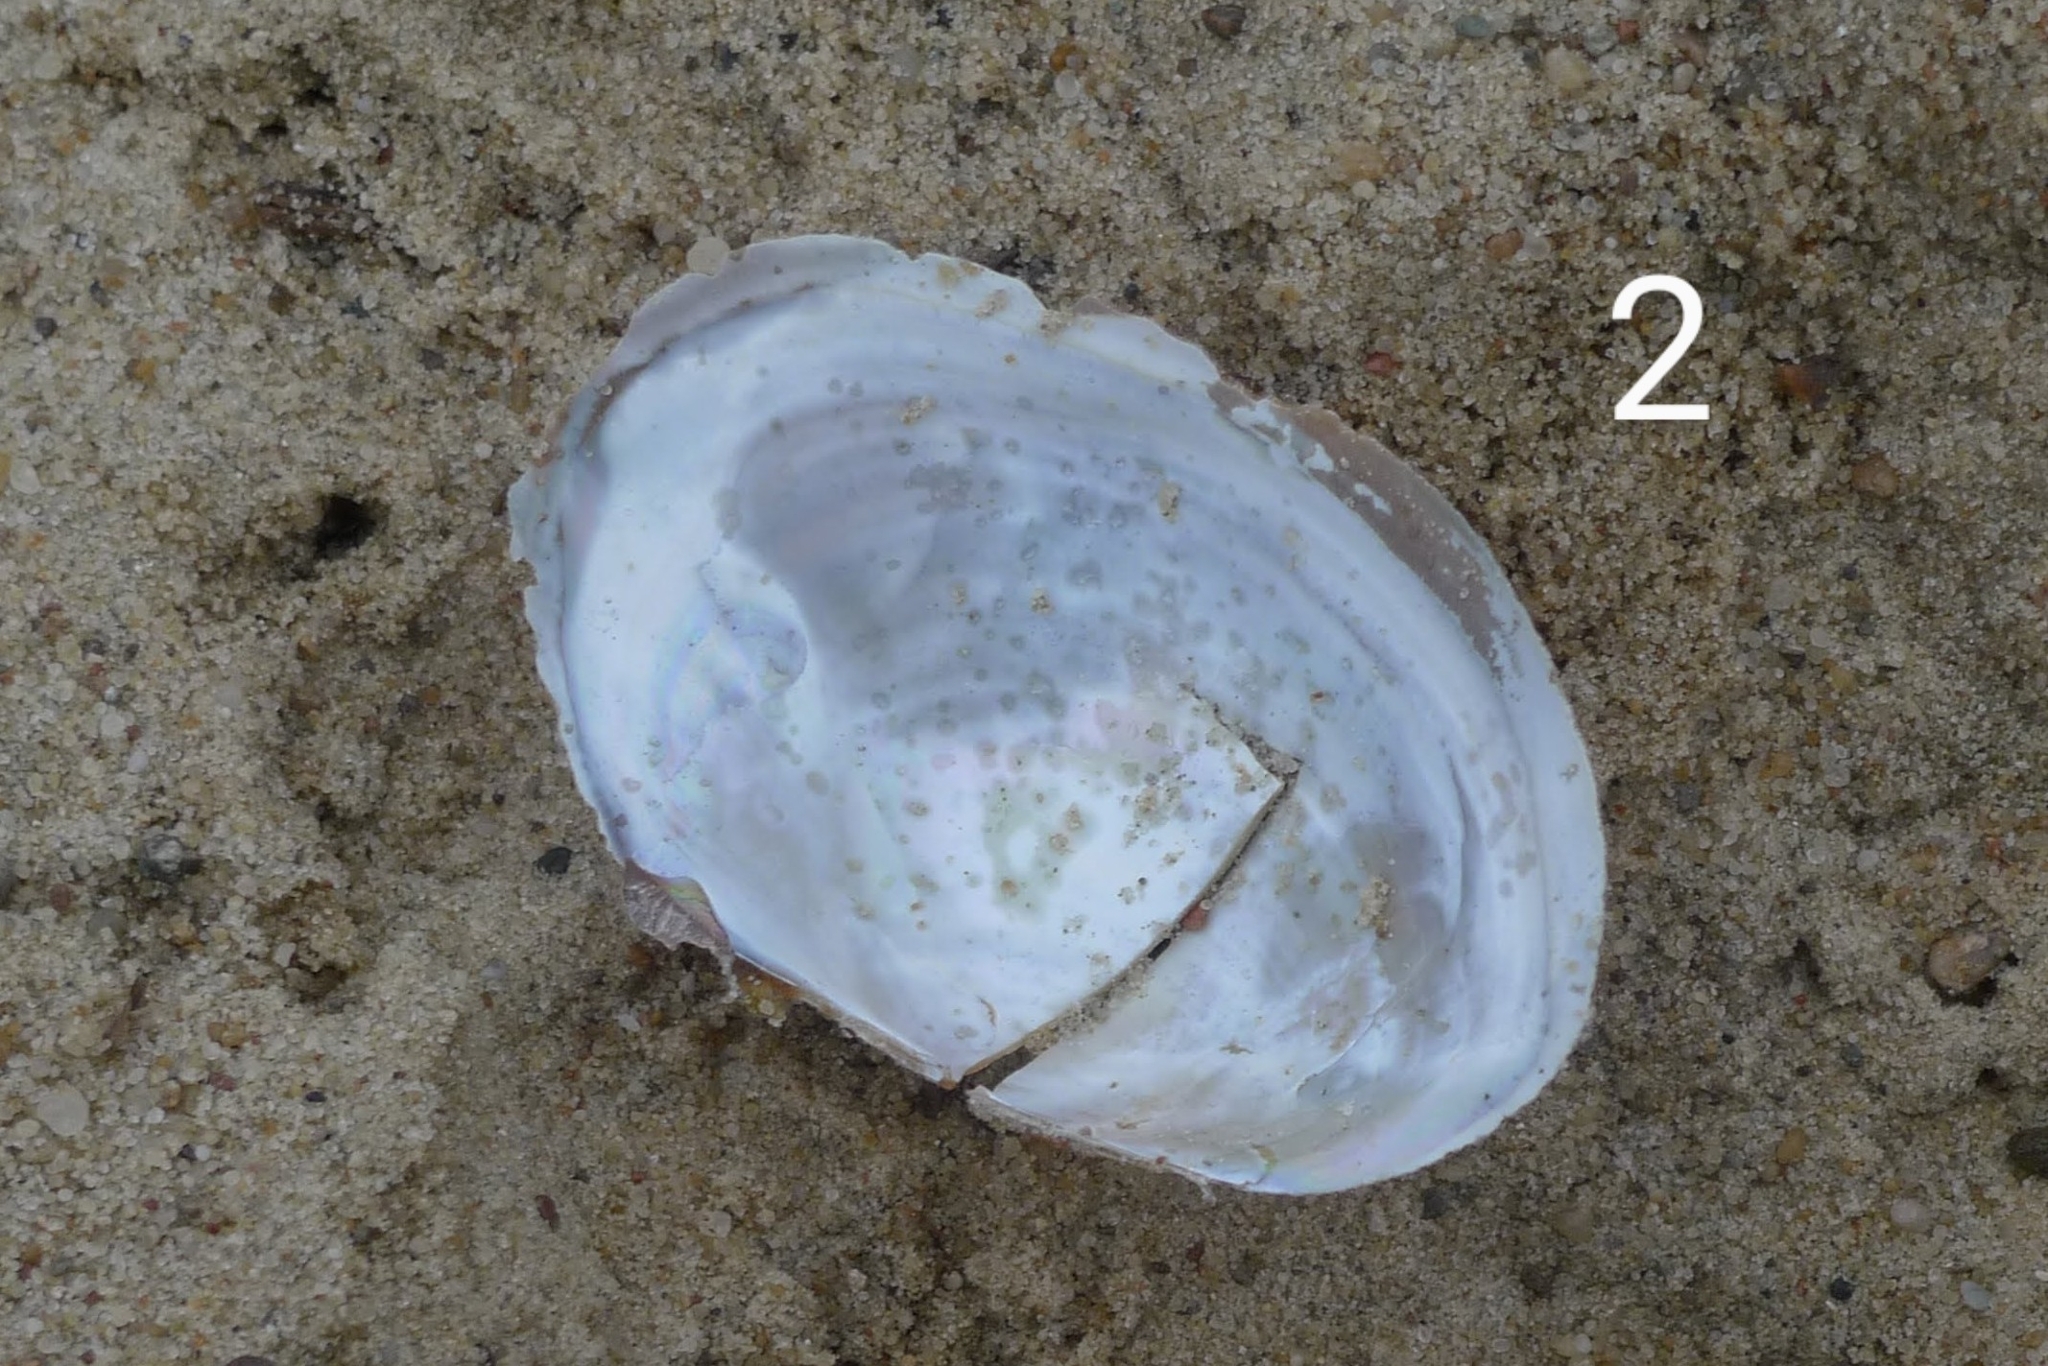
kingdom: Animalia
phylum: Mollusca
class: Bivalvia
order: Unionida
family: Unionidae
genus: Sinanodonta
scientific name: Sinanodonta woodiana
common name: Chinese pond mussel
